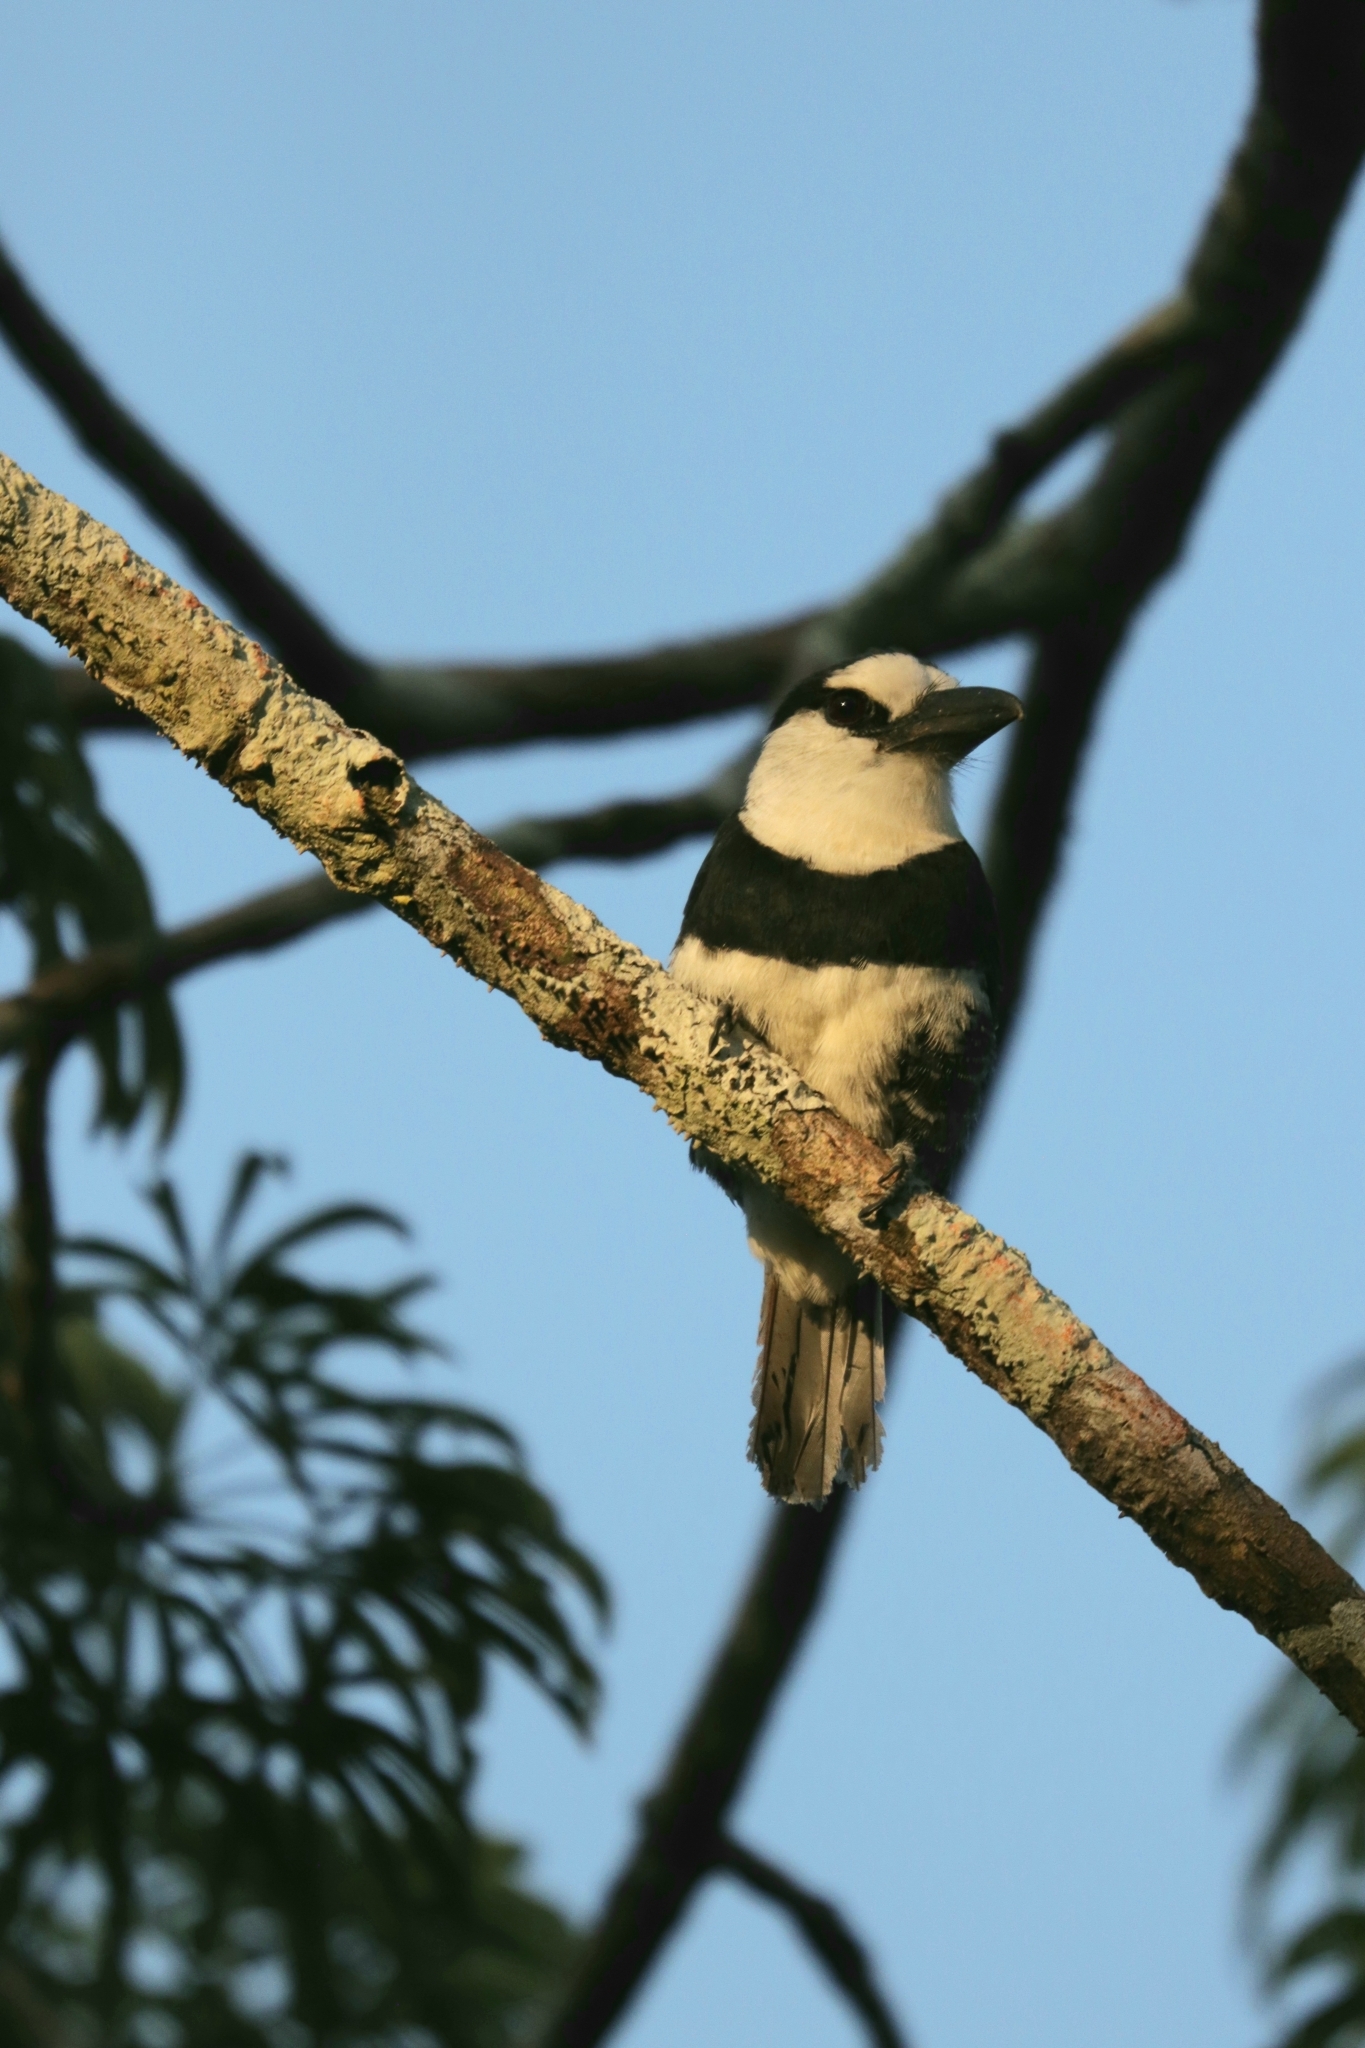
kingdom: Animalia
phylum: Chordata
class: Aves
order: Piciformes
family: Bucconidae
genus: Notharchus
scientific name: Notharchus hyperrhynchus
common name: White-necked puffbird
